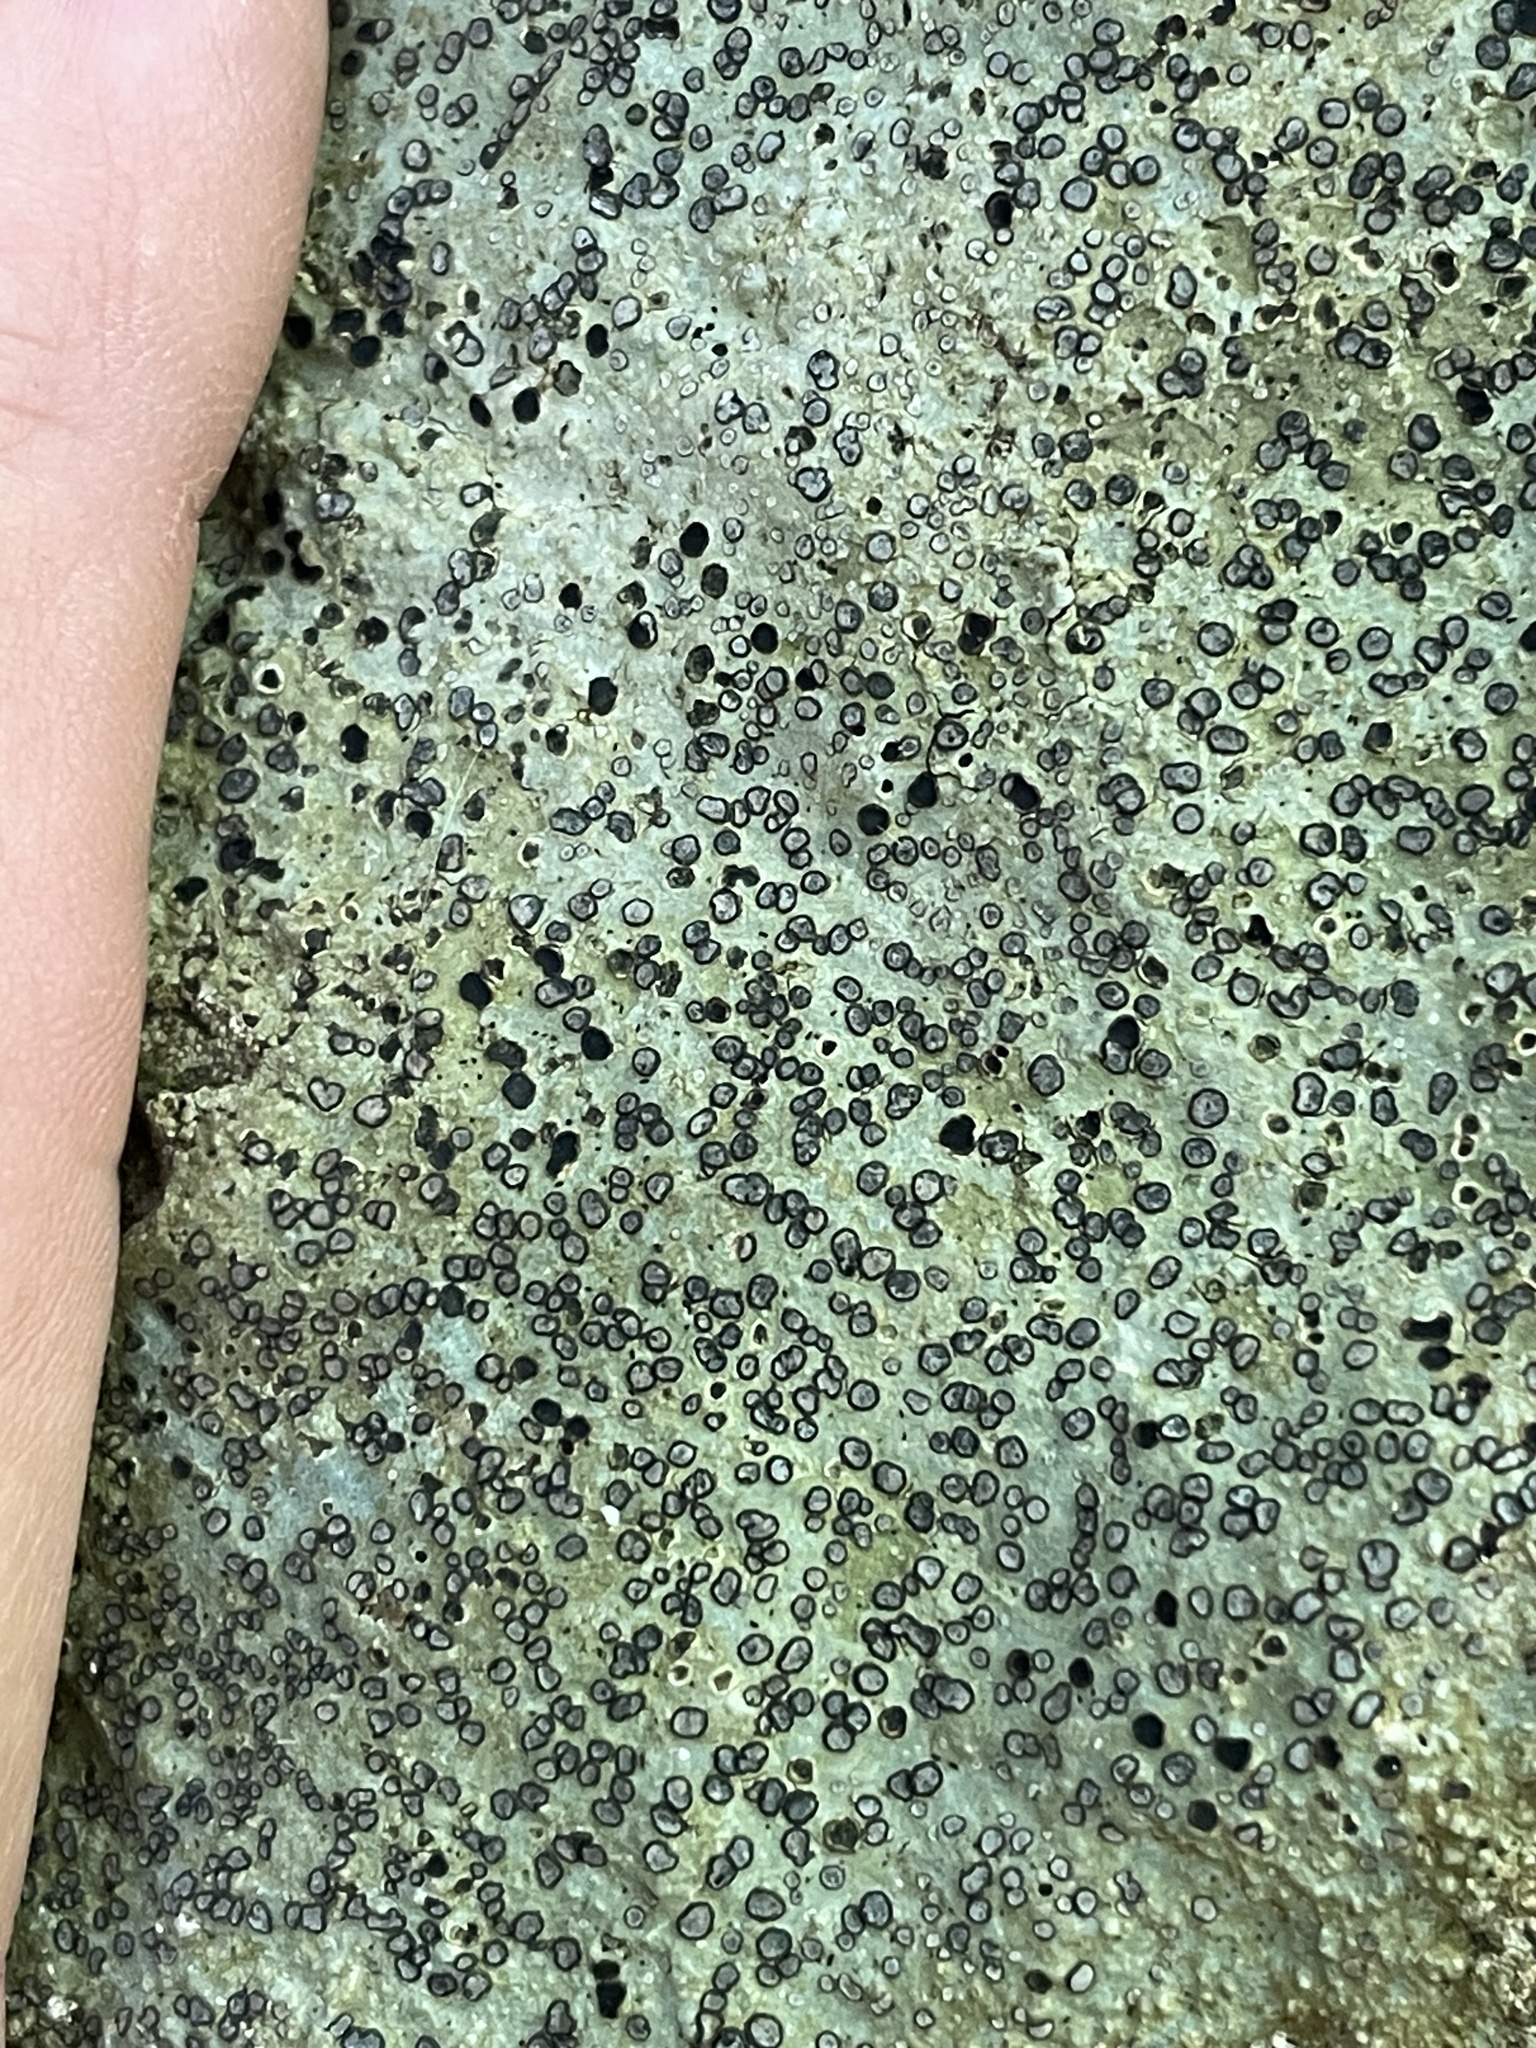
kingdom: Fungi
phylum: Ascomycota
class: Lecanoromycetes
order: Lecideales
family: Lecideaceae
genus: Porpidia
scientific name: Porpidia albocaerulescens
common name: Smokey-eyed boulder lichen
